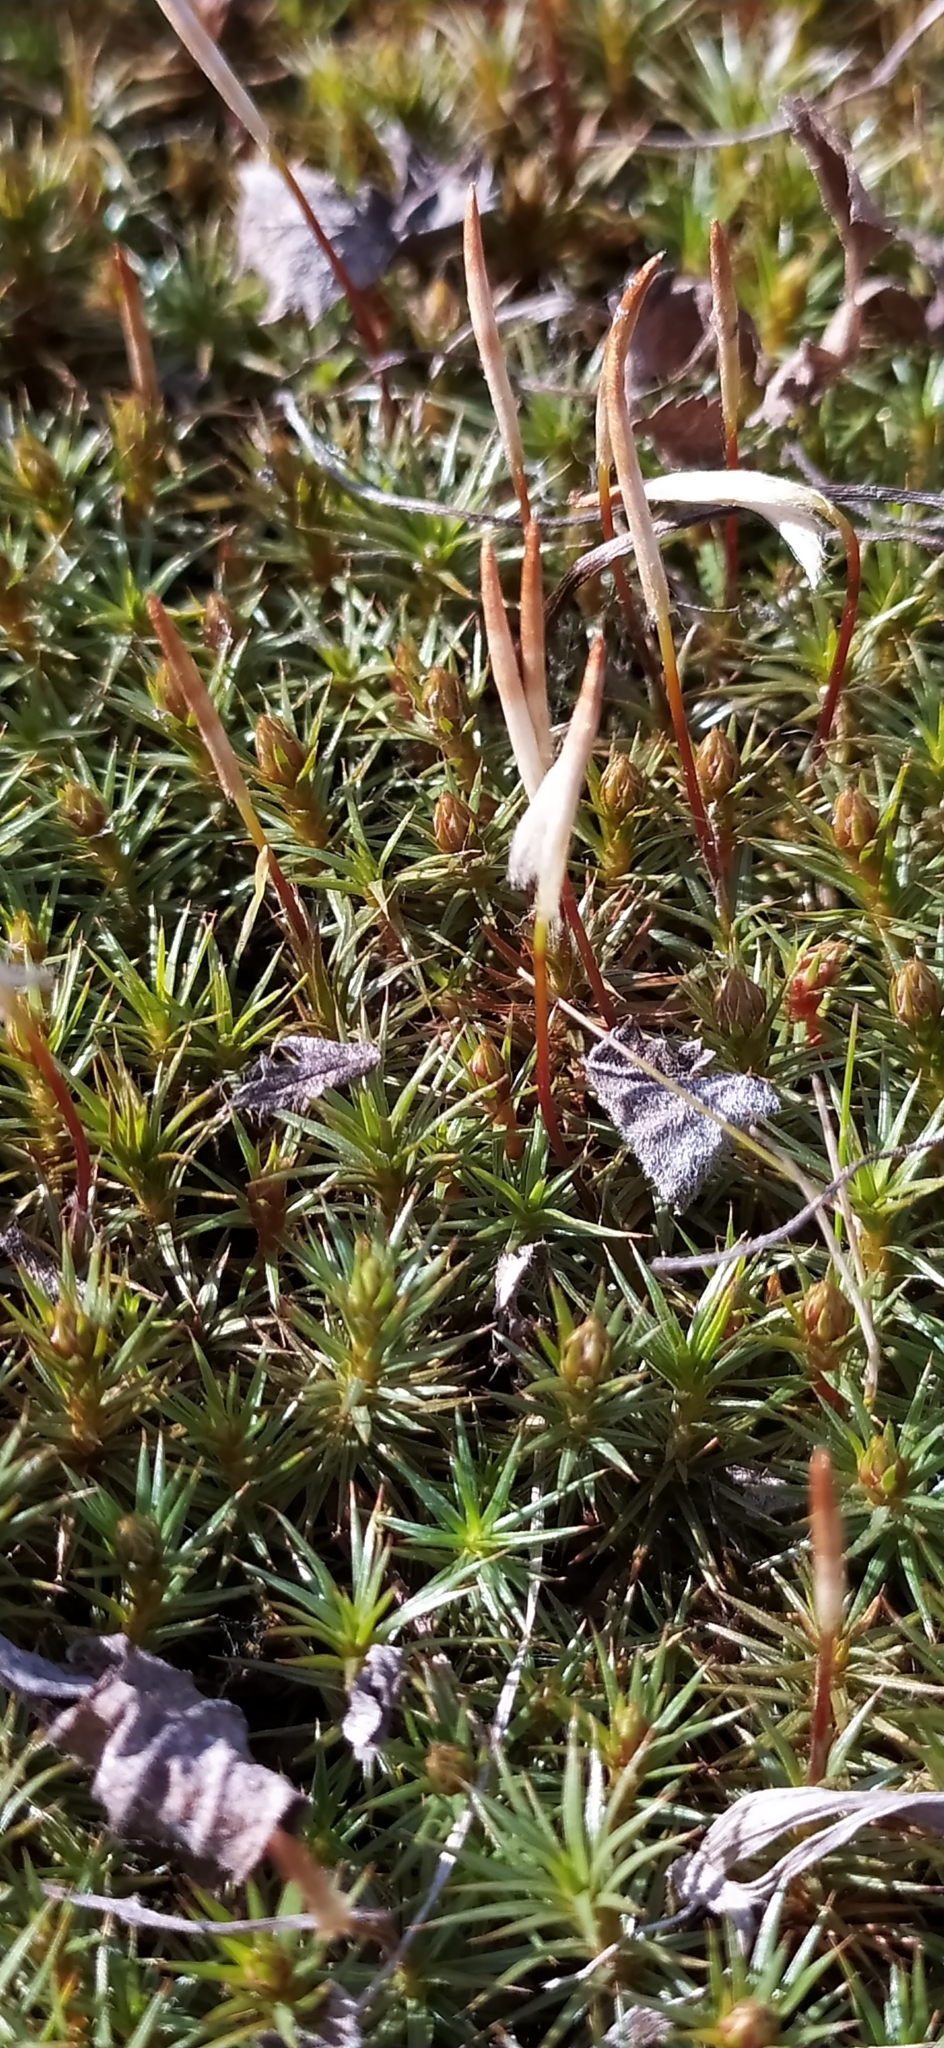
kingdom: Plantae
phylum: Bryophyta
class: Polytrichopsida
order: Polytrichales
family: Polytrichaceae
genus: Polytrichum
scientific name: Polytrichum juniperinum
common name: Juniper haircap moss
